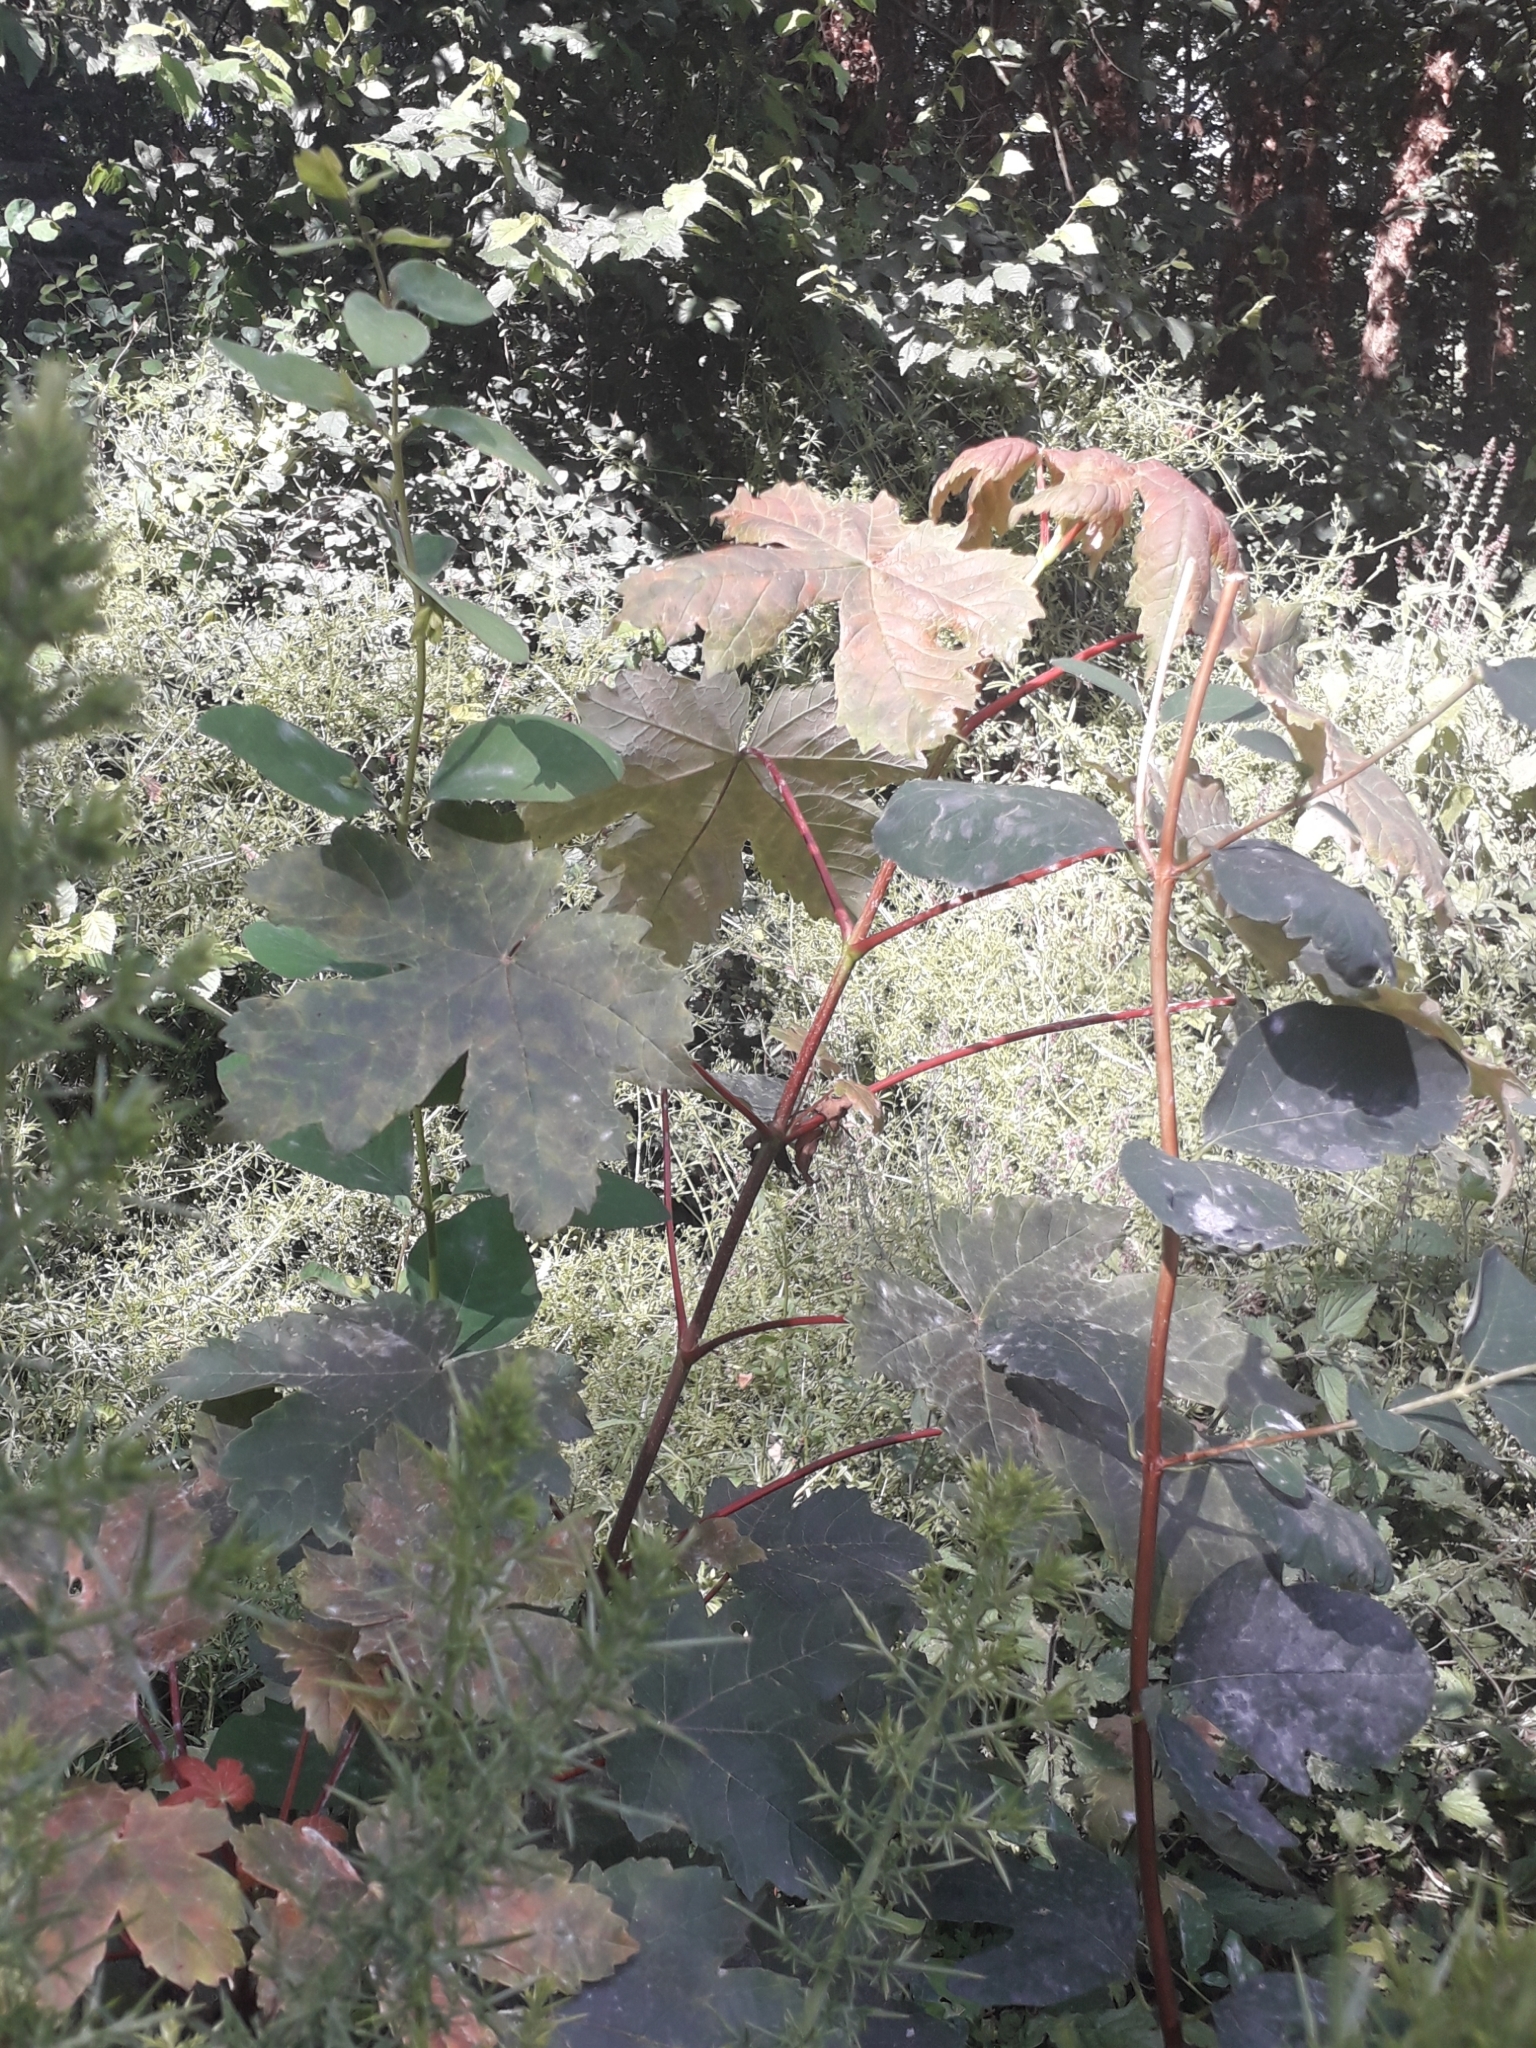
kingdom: Plantae
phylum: Tracheophyta
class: Magnoliopsida
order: Sapindales
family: Sapindaceae
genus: Acer
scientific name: Acer pseudoplatanus
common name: Sycamore
